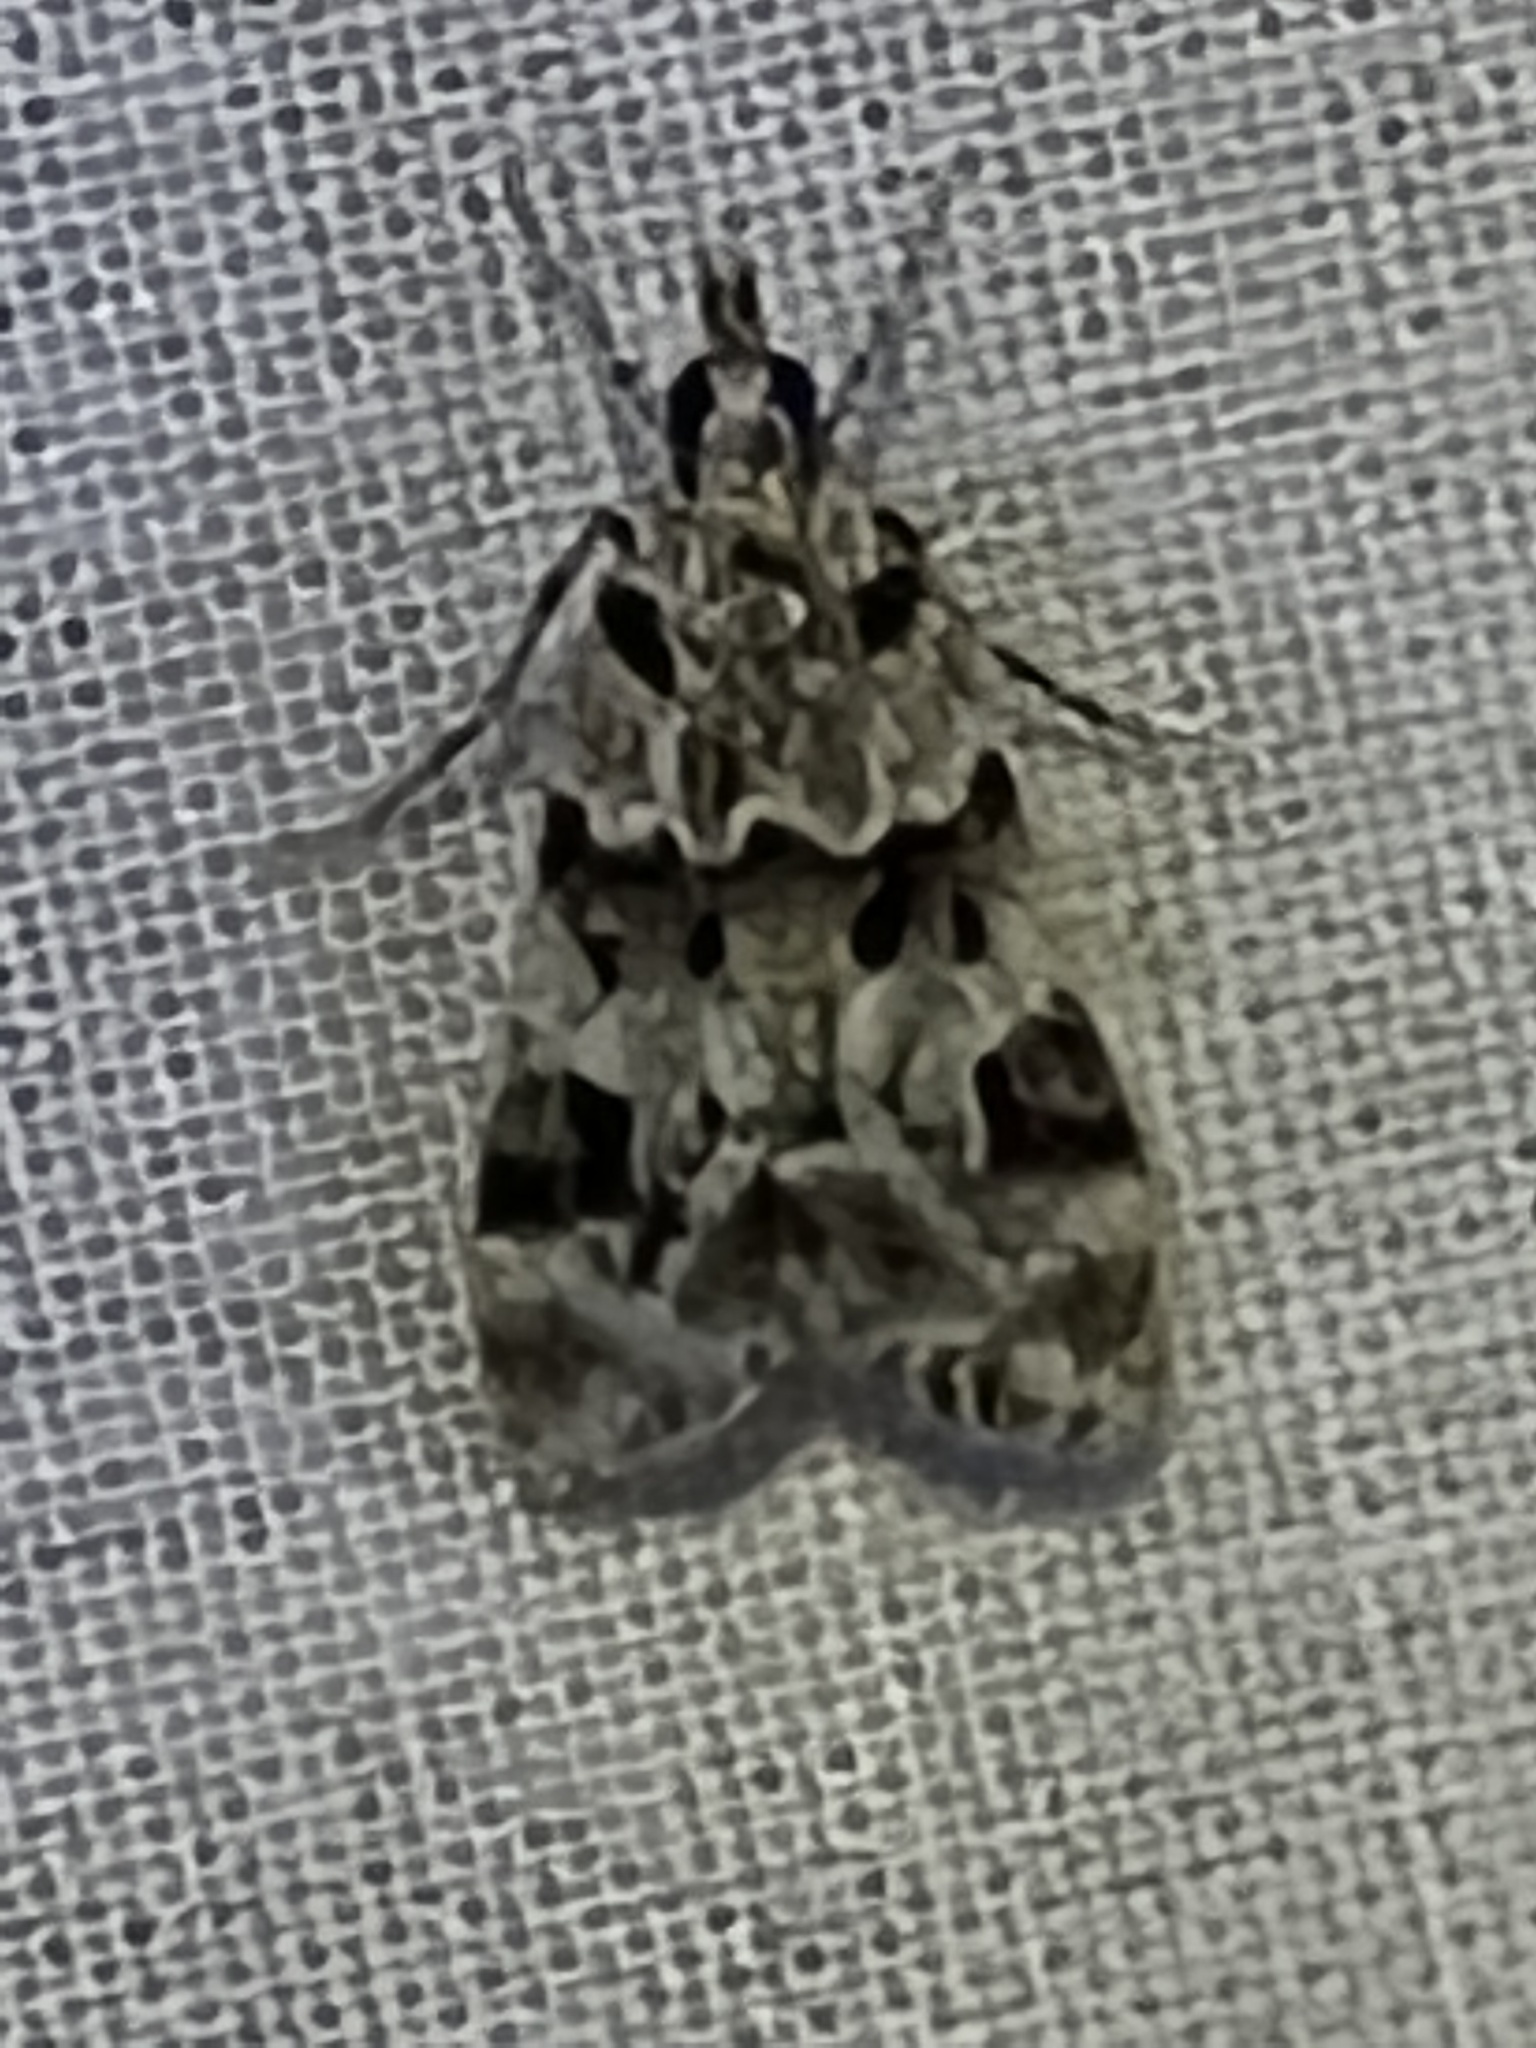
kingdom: Animalia
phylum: Arthropoda
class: Insecta
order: Lepidoptera
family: Crambidae
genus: Eudonia
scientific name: Eudonia delunella
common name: Pied grey
